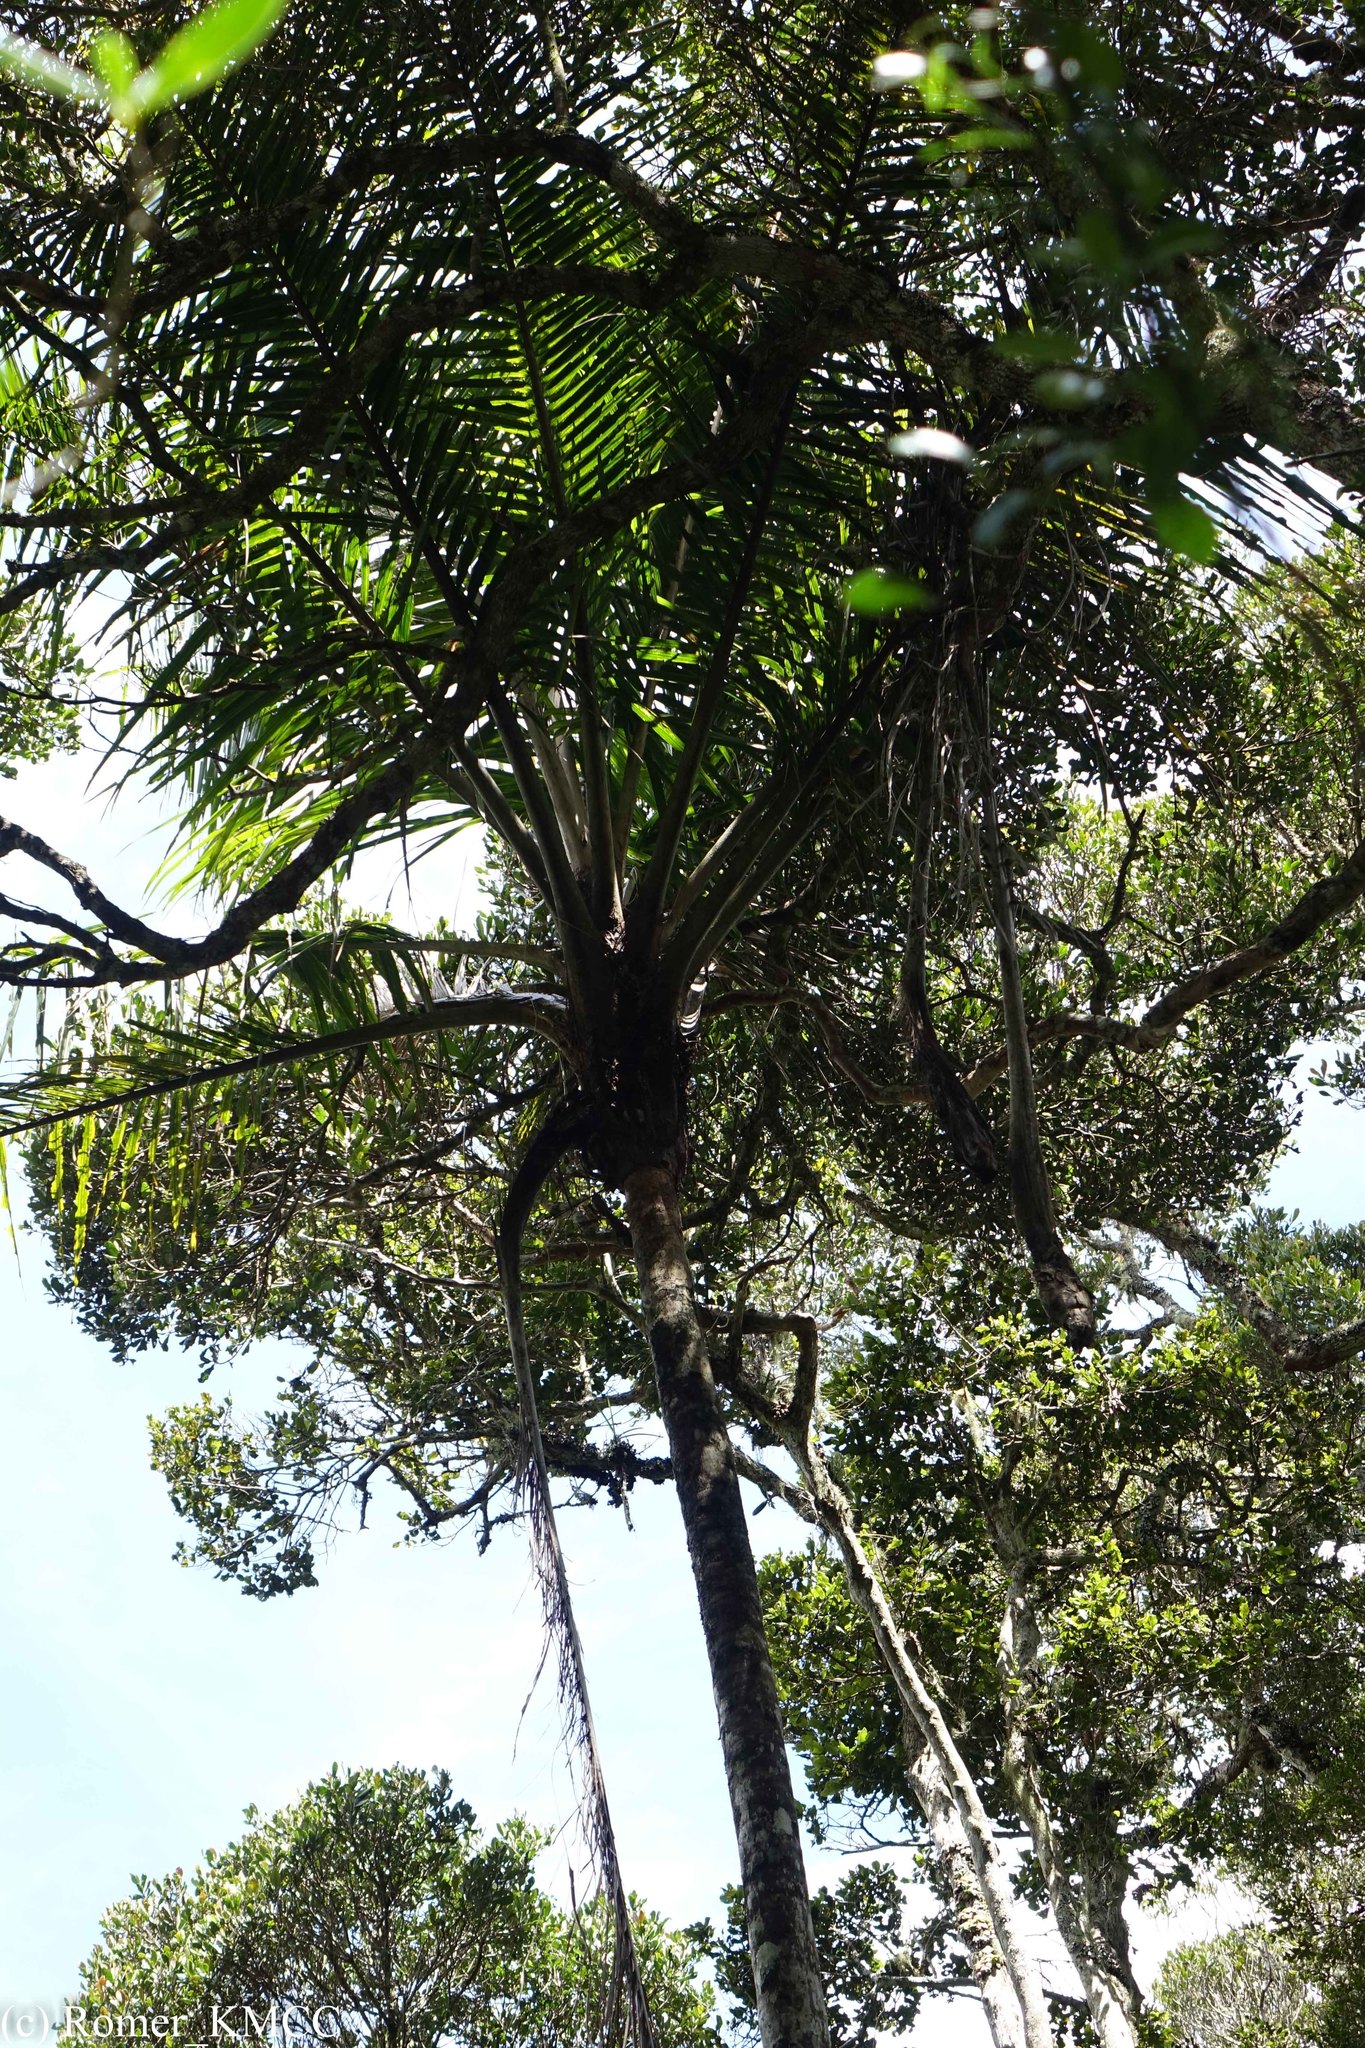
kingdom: Plantae
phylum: Tracheophyta
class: Liliopsida
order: Arecales
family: Arecaceae
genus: Ravenea
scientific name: Ravenea madagascariensis
